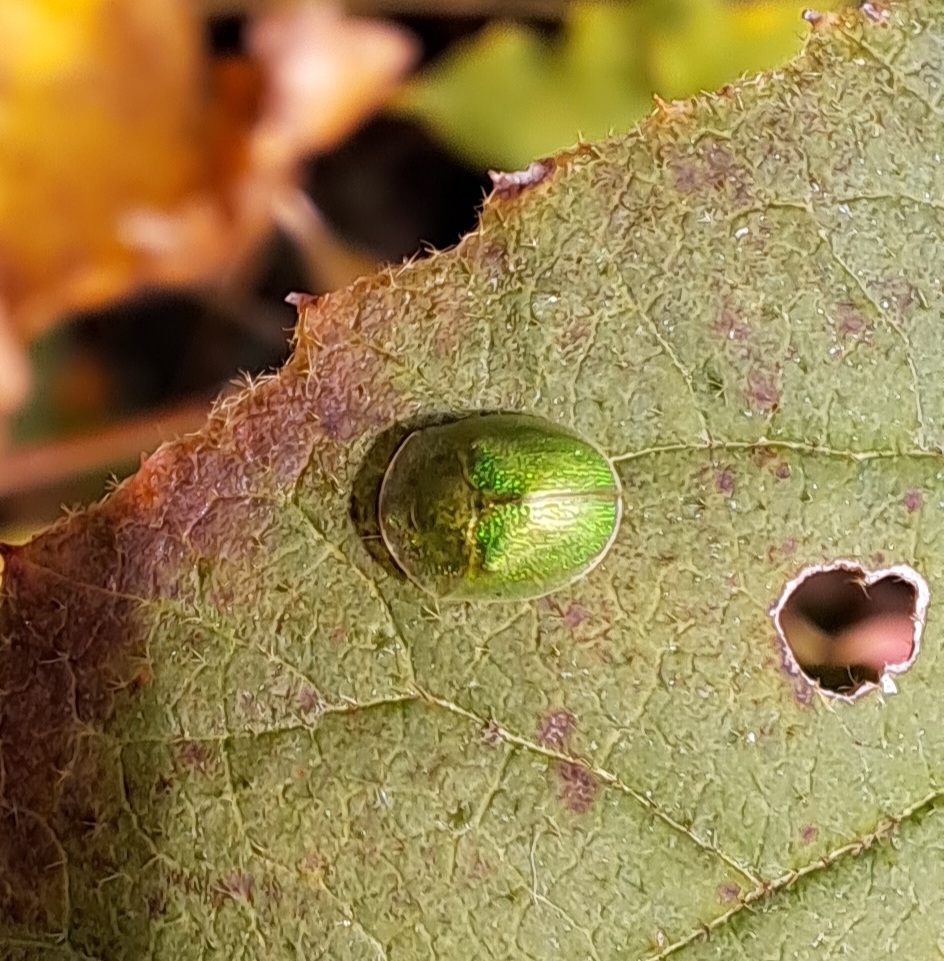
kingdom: Animalia
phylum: Arthropoda
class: Insecta
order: Coleoptera
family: Chrysomelidae
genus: Cassida
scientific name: Cassida hemisphaerica
